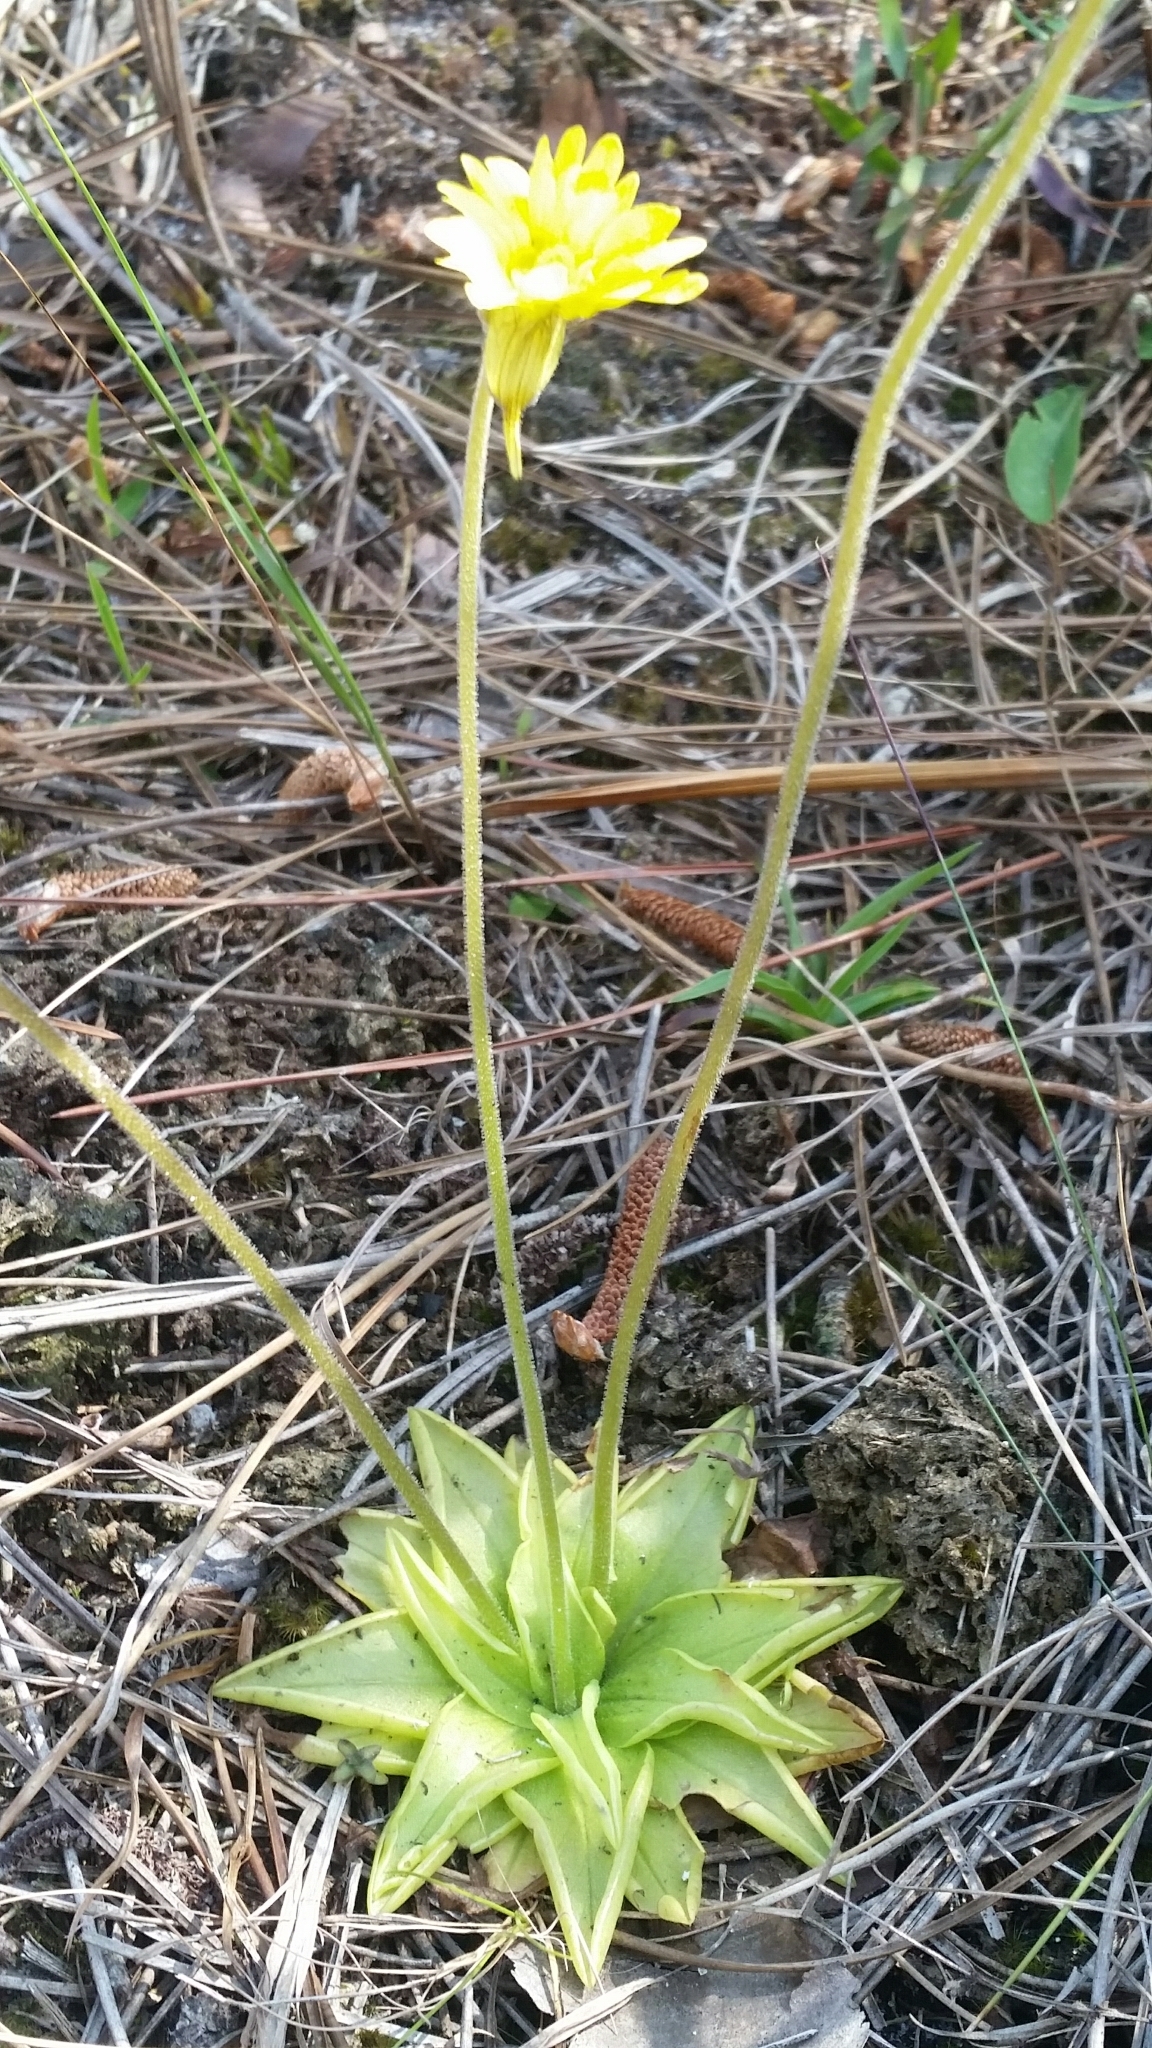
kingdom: Plantae
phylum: Tracheophyta
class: Magnoliopsida
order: Lamiales
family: Lentibulariaceae
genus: Pinguicula
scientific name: Pinguicula lutea
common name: Yellow butterwort
